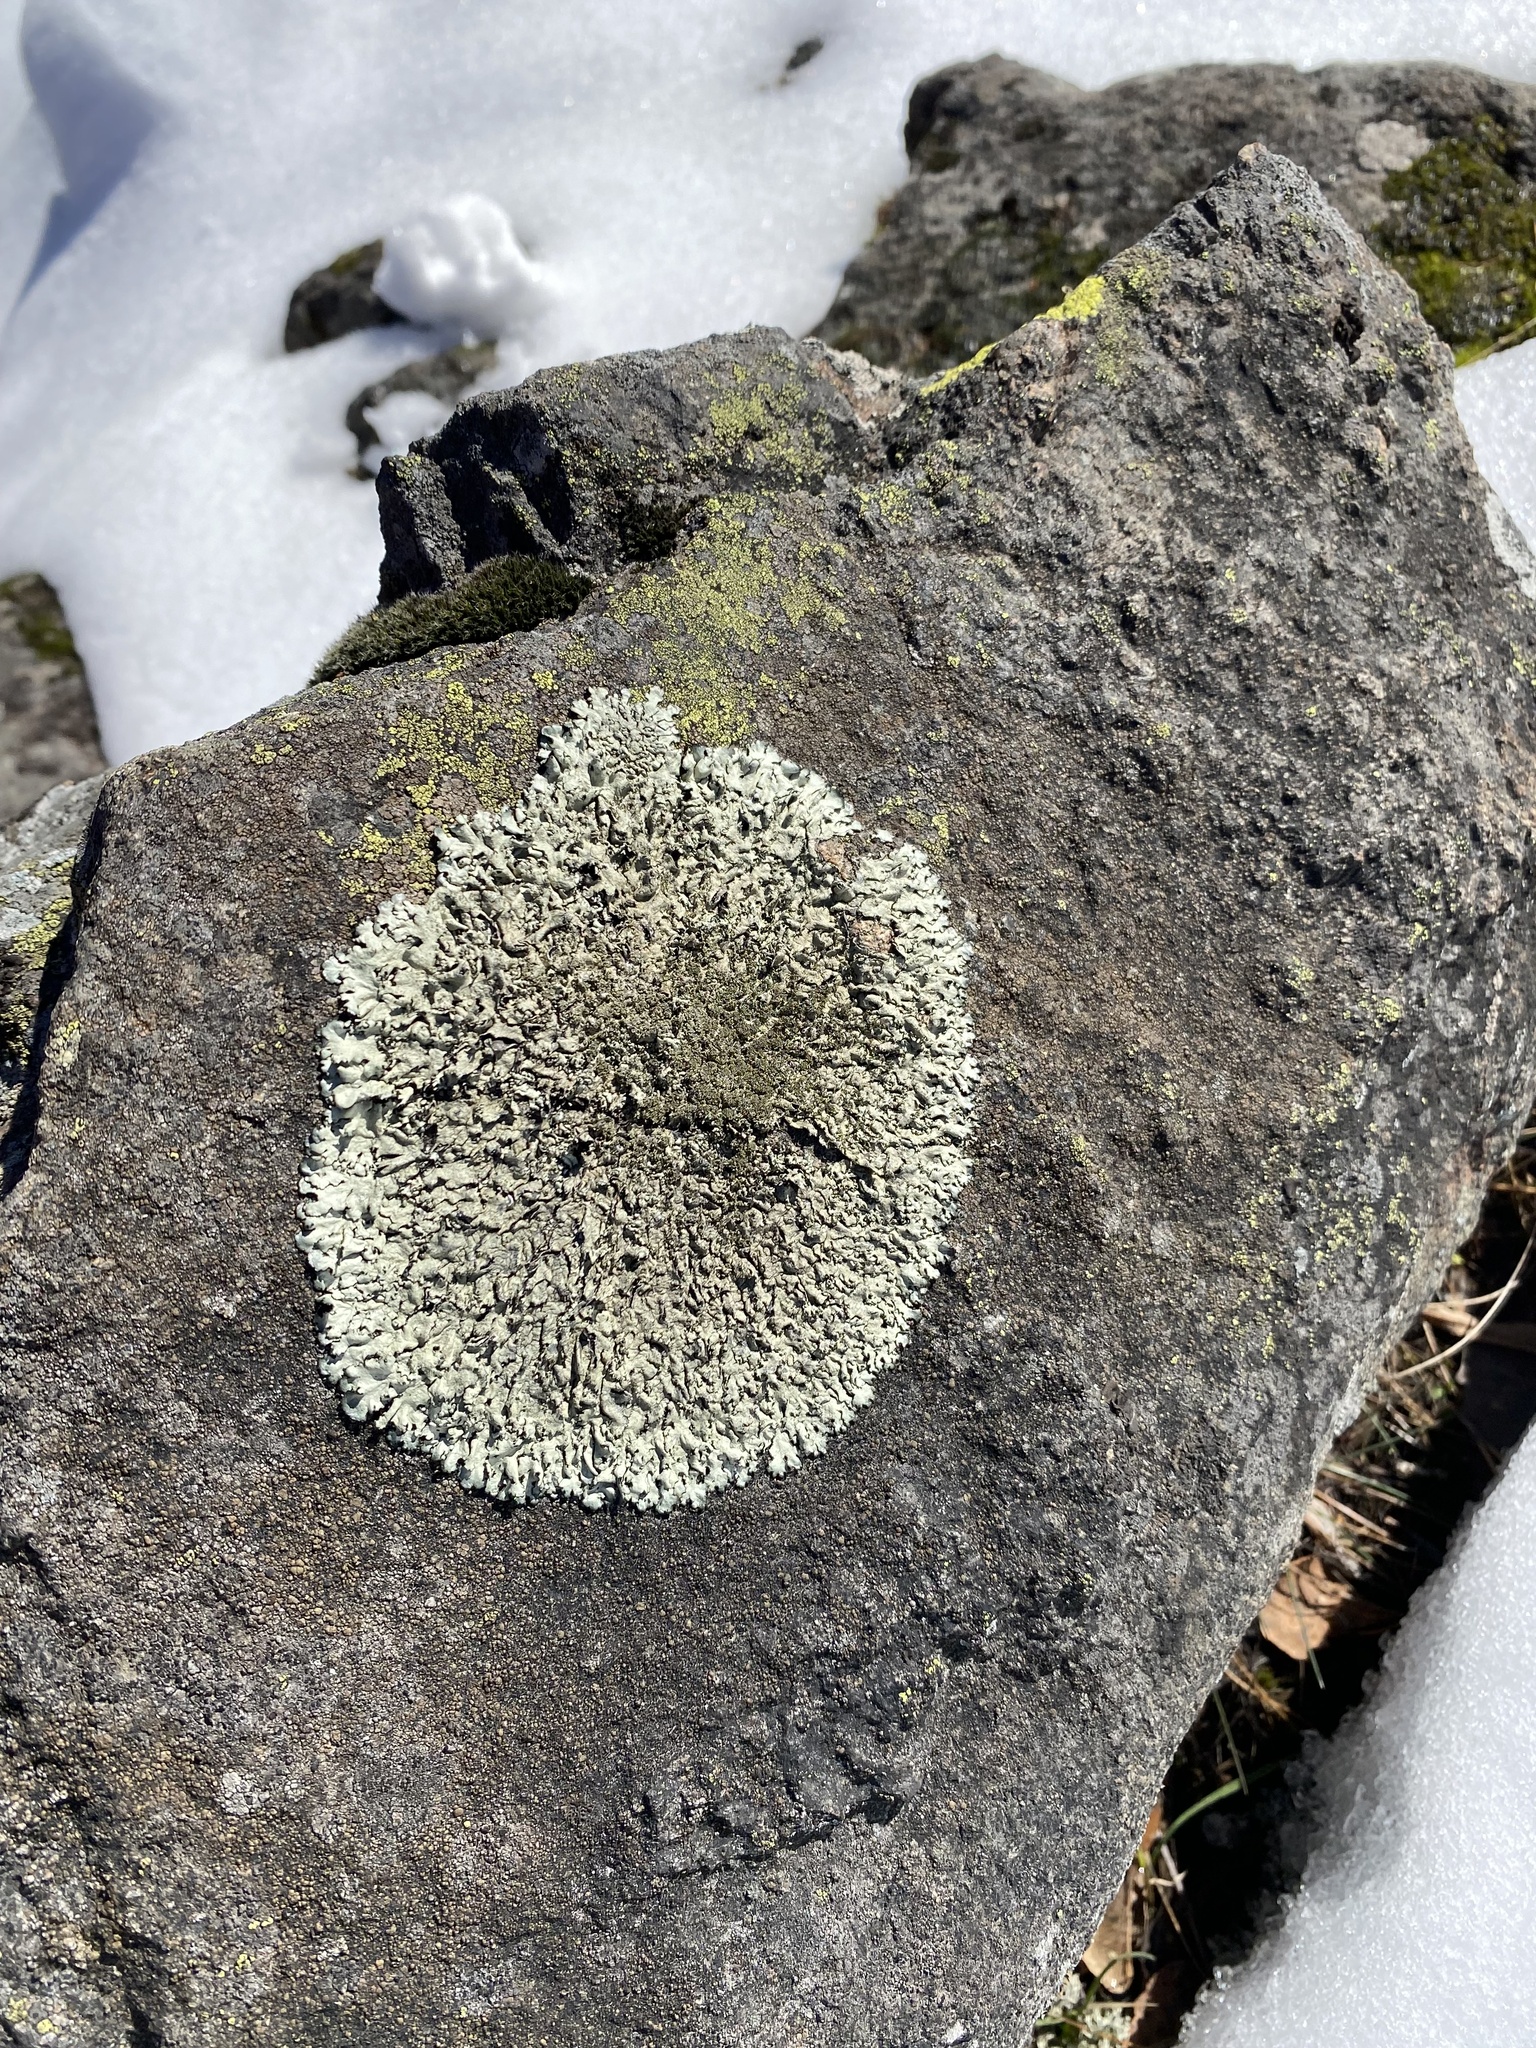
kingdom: Fungi
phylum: Ascomycota
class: Lecanoromycetes
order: Lecanorales
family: Parmeliaceae
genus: Xanthoparmelia
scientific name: Xanthoparmelia conspersa
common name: Peppered rock shield
